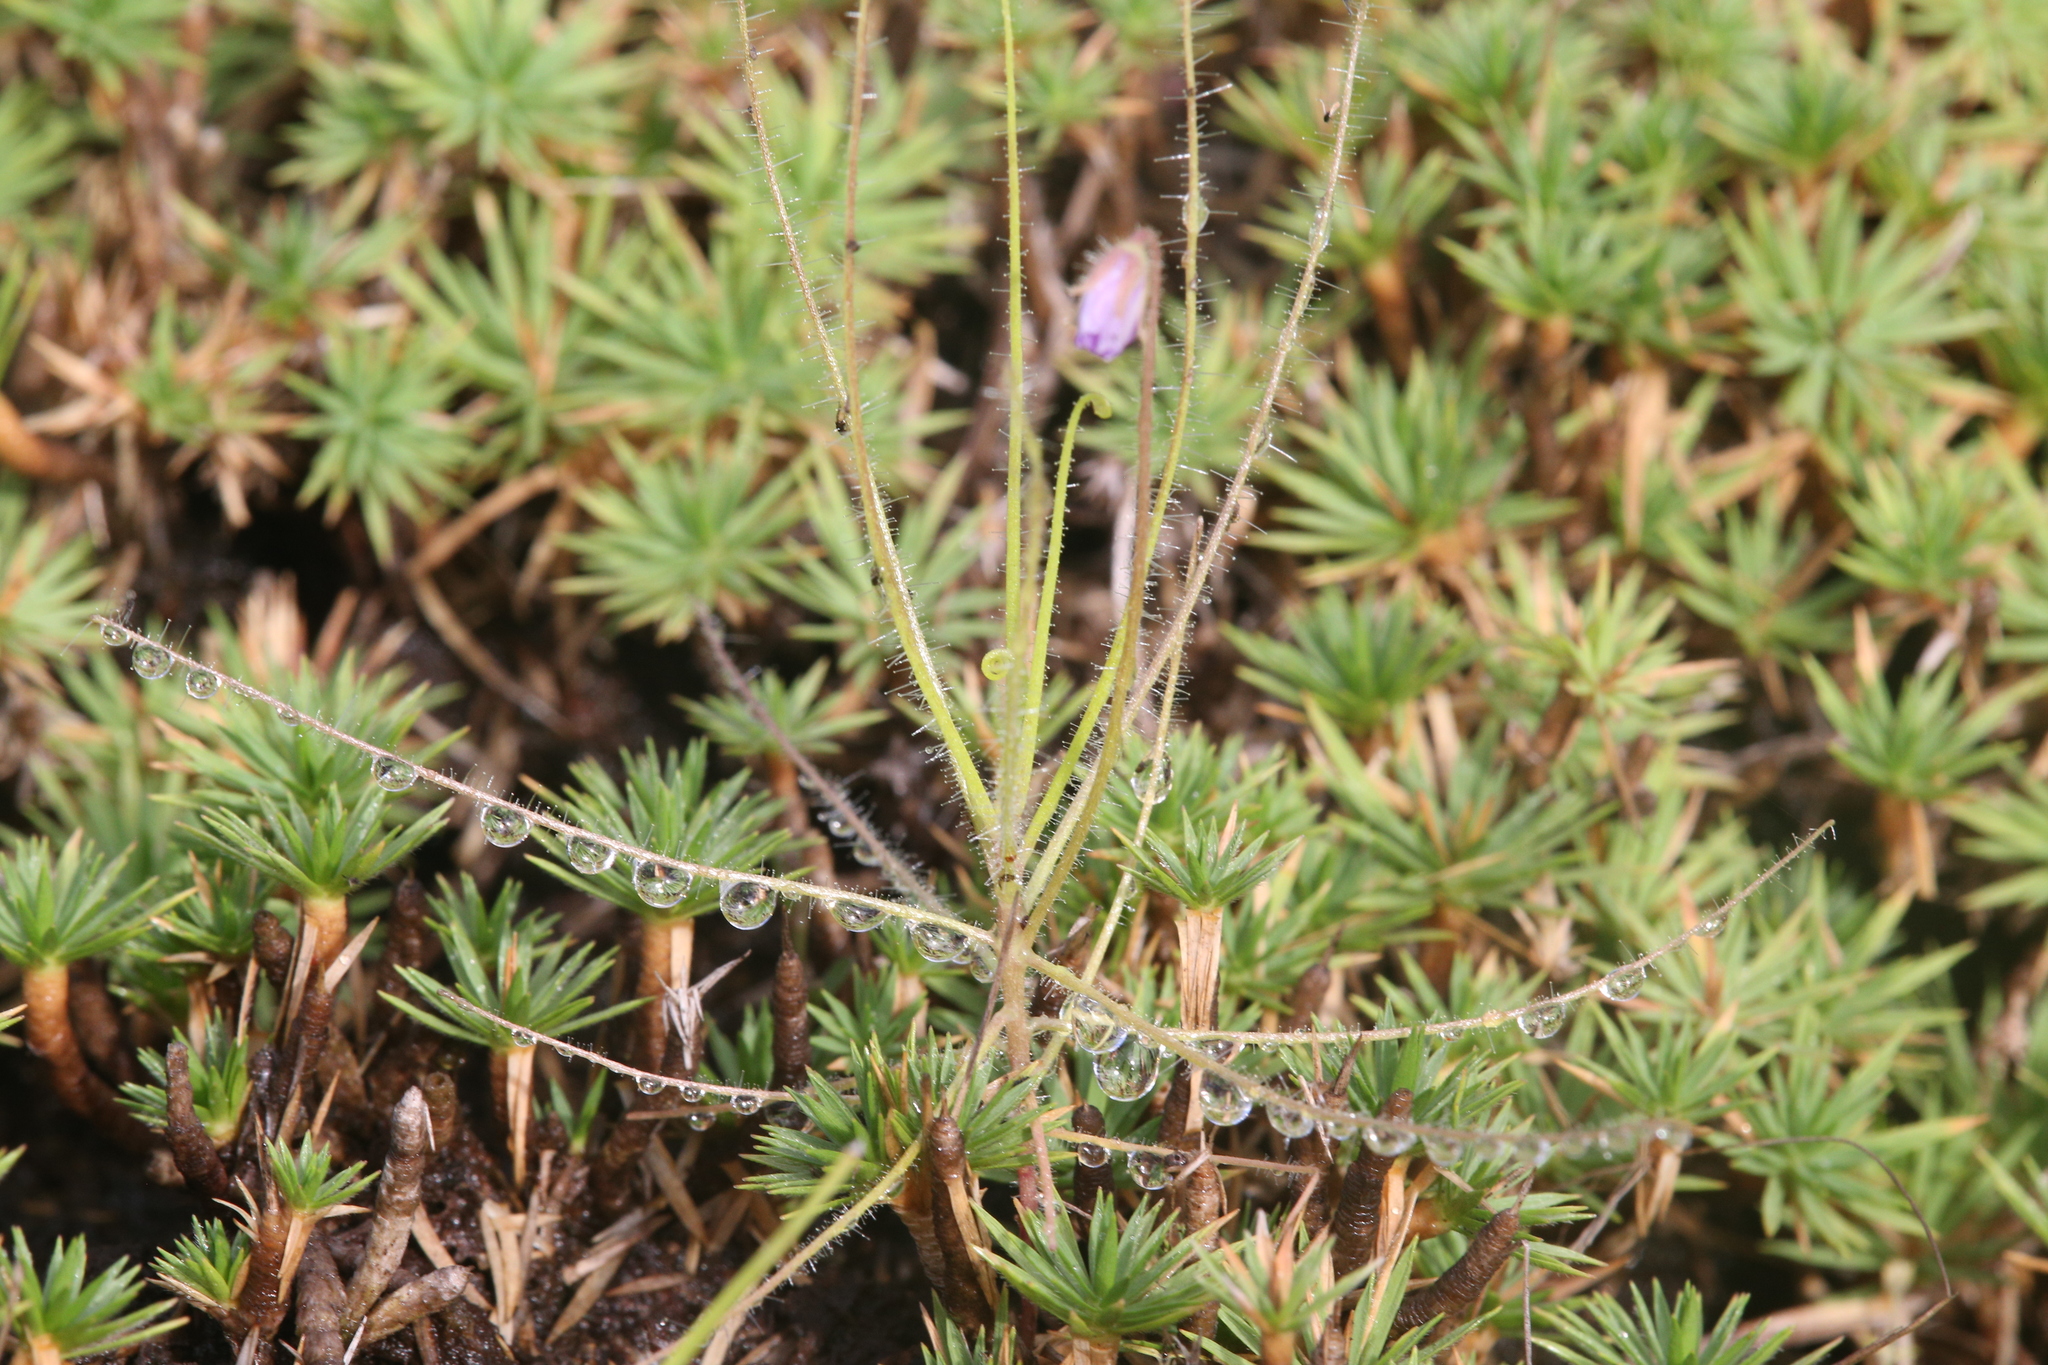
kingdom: Plantae
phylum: Tracheophyta
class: Magnoliopsida
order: Lamiales
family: Byblidaceae
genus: Byblis
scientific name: Byblis liniflora
